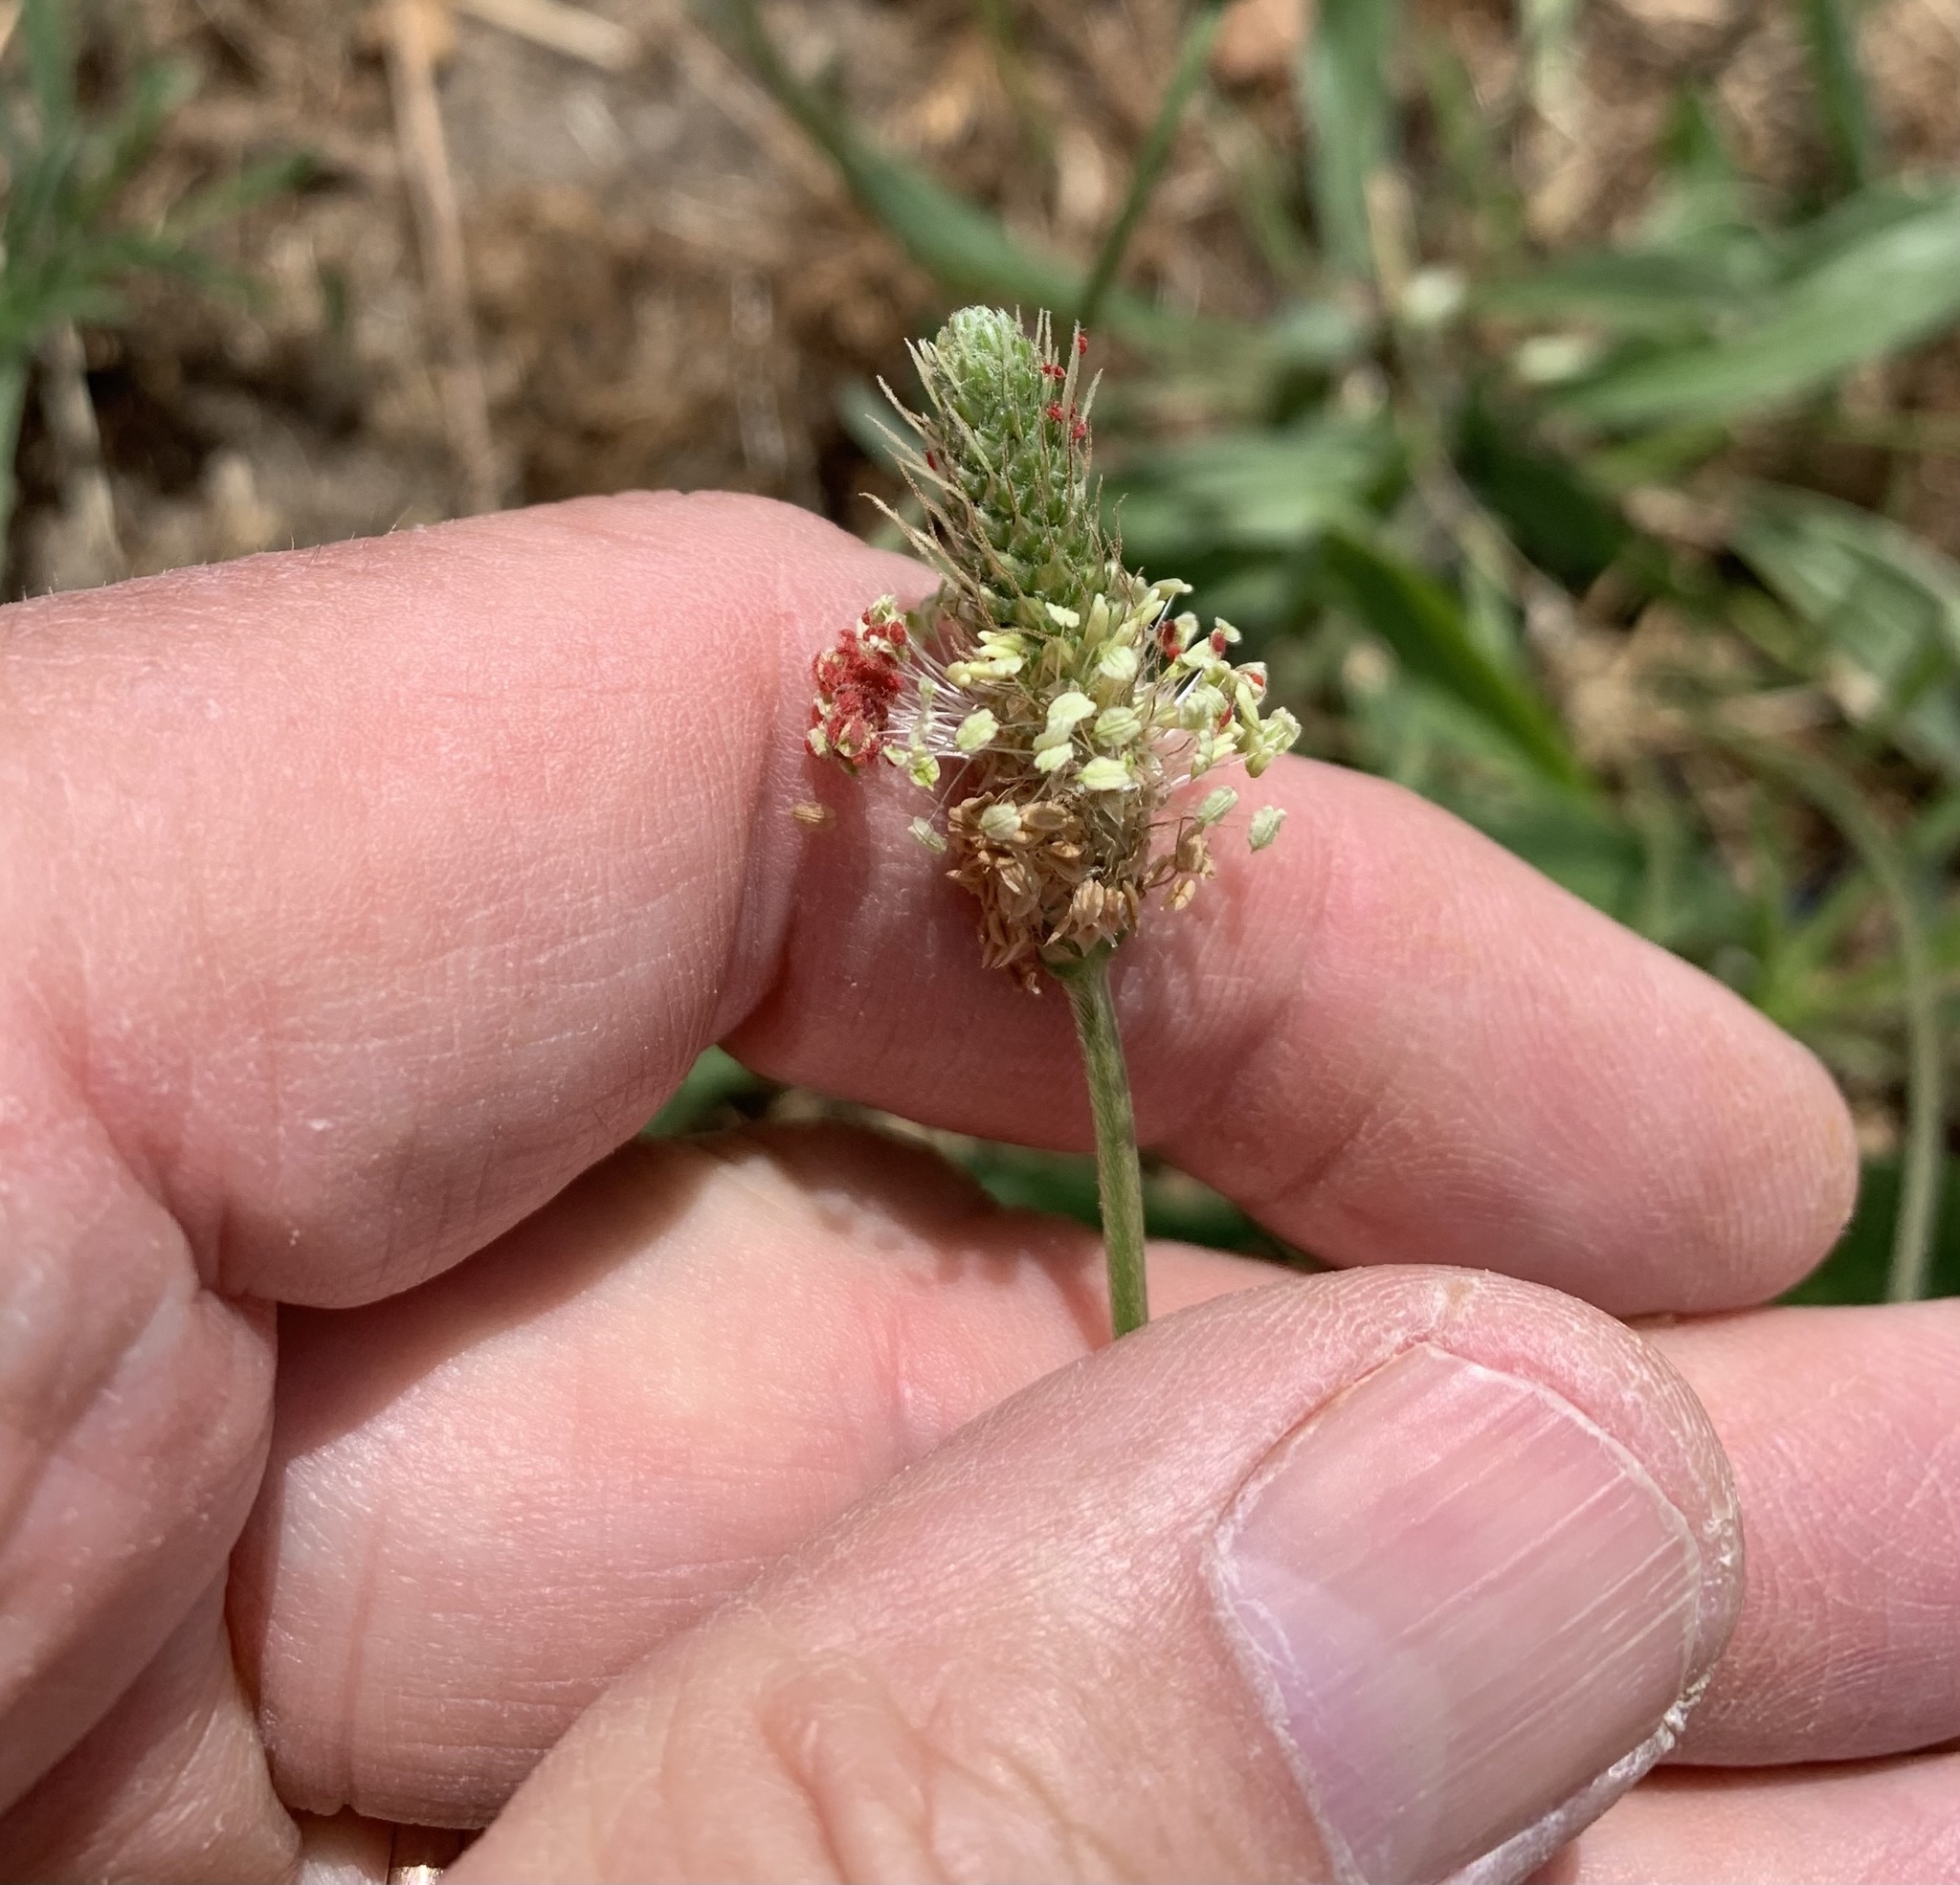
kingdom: Plantae
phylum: Tracheophyta
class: Magnoliopsida
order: Lamiales
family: Plantaginaceae
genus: Plantago
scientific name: Plantago lanceolata
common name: Ribwort plantain
